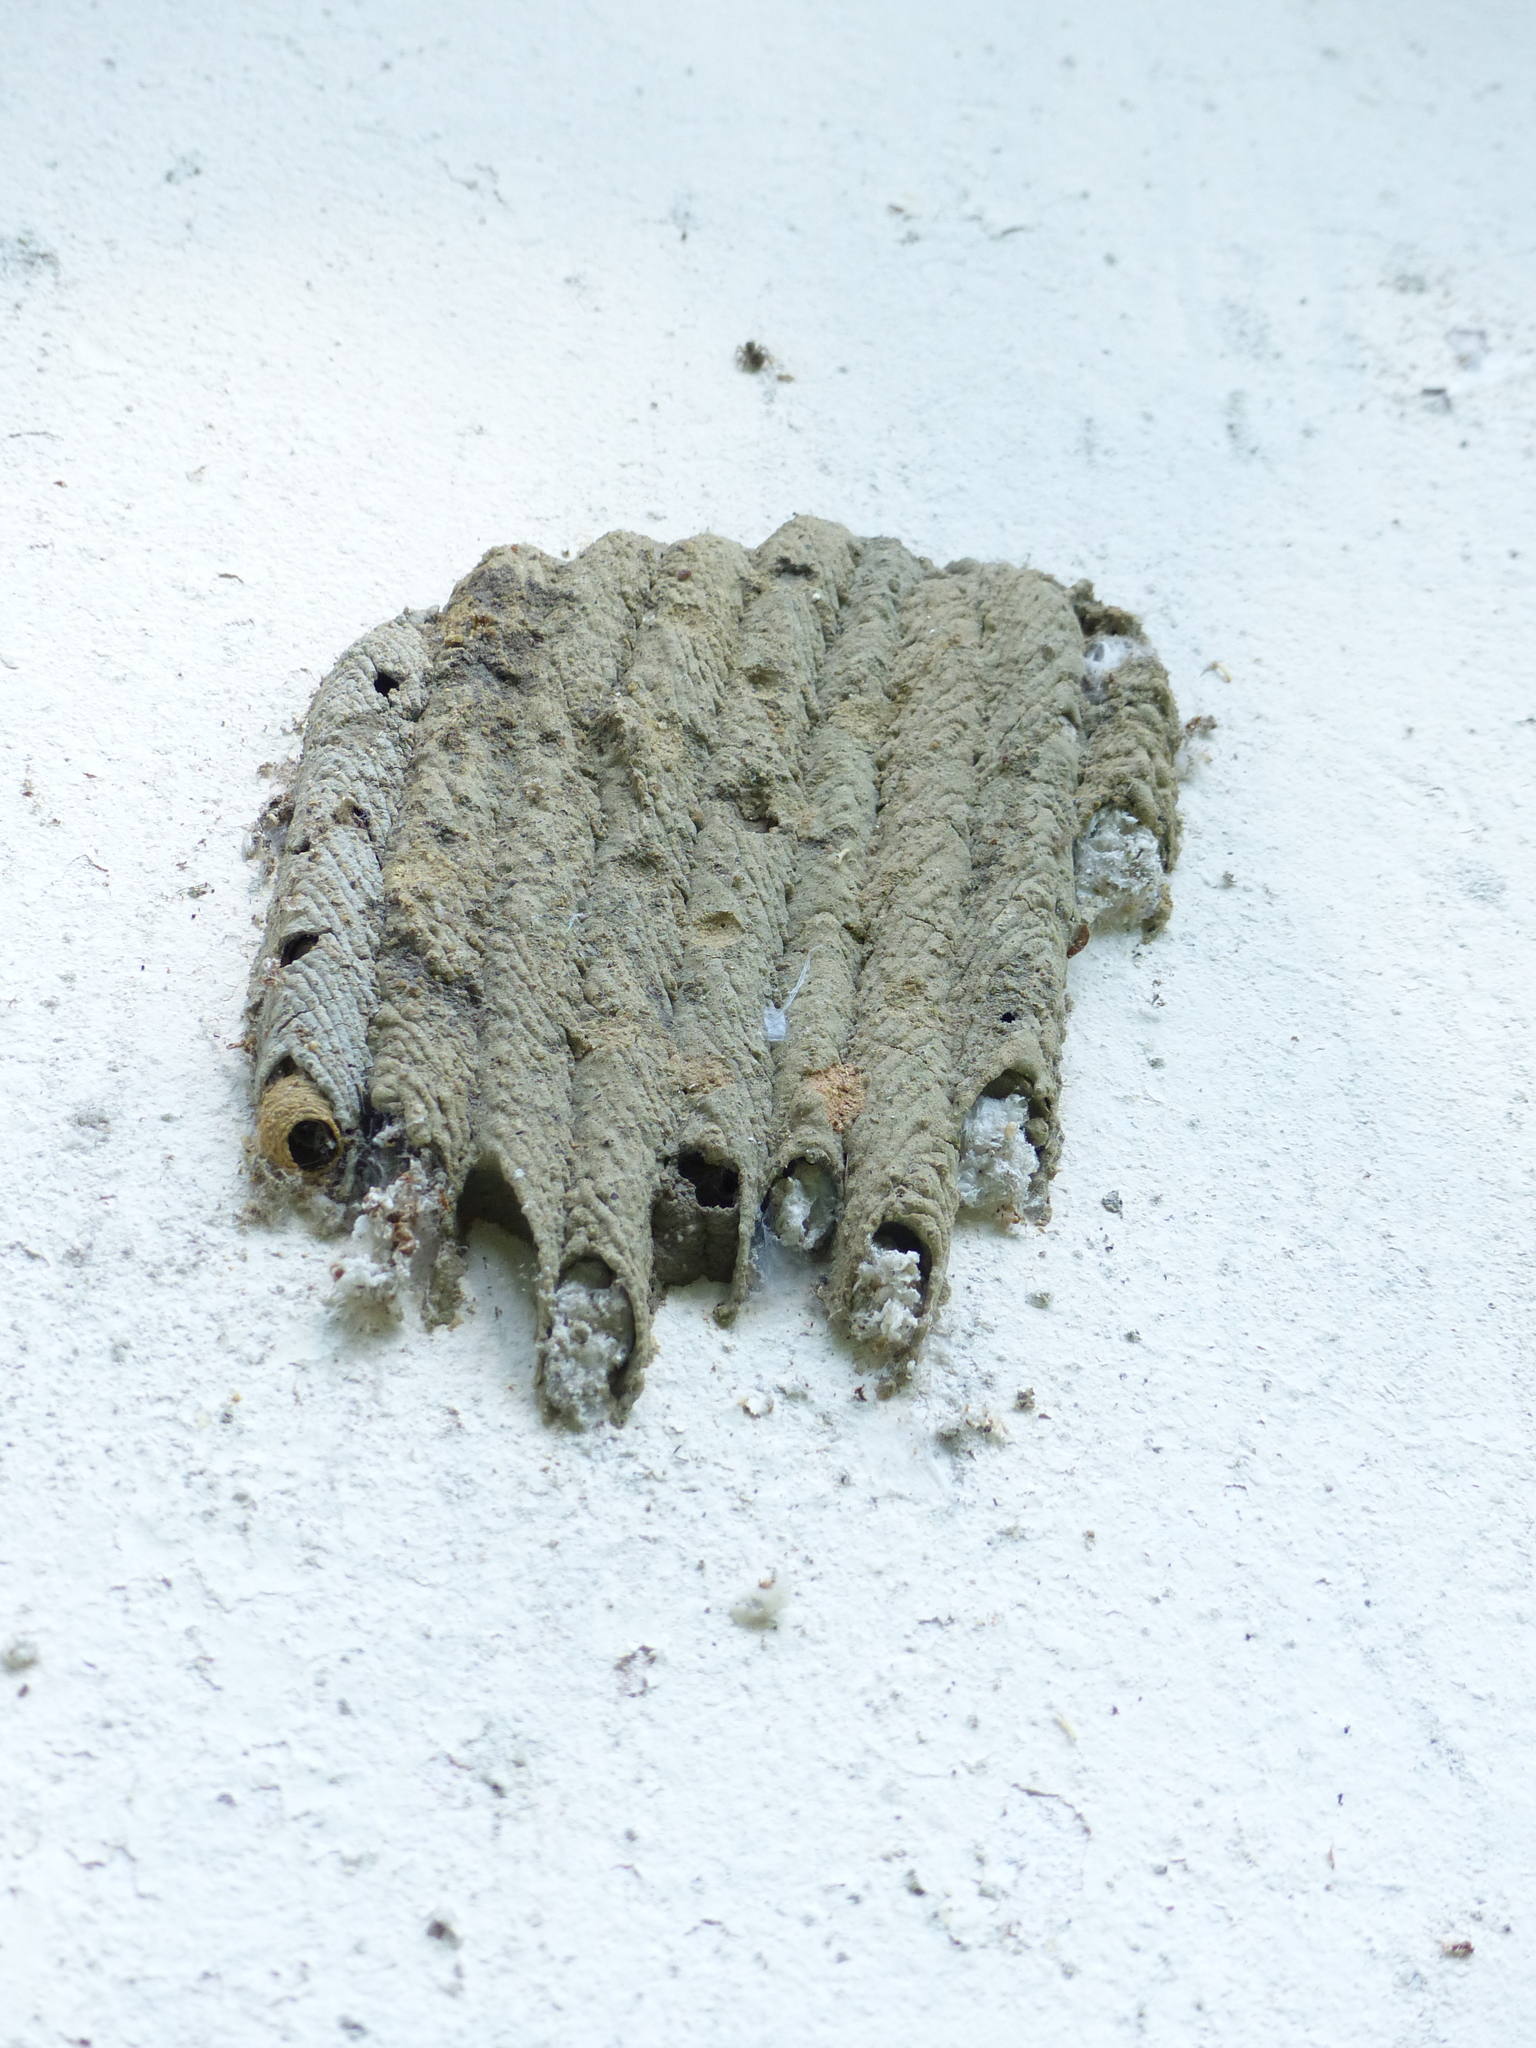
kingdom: Animalia
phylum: Arthropoda
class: Insecta
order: Hymenoptera
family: Crabronidae
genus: Trypoxylon
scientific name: Trypoxylon albitarse
